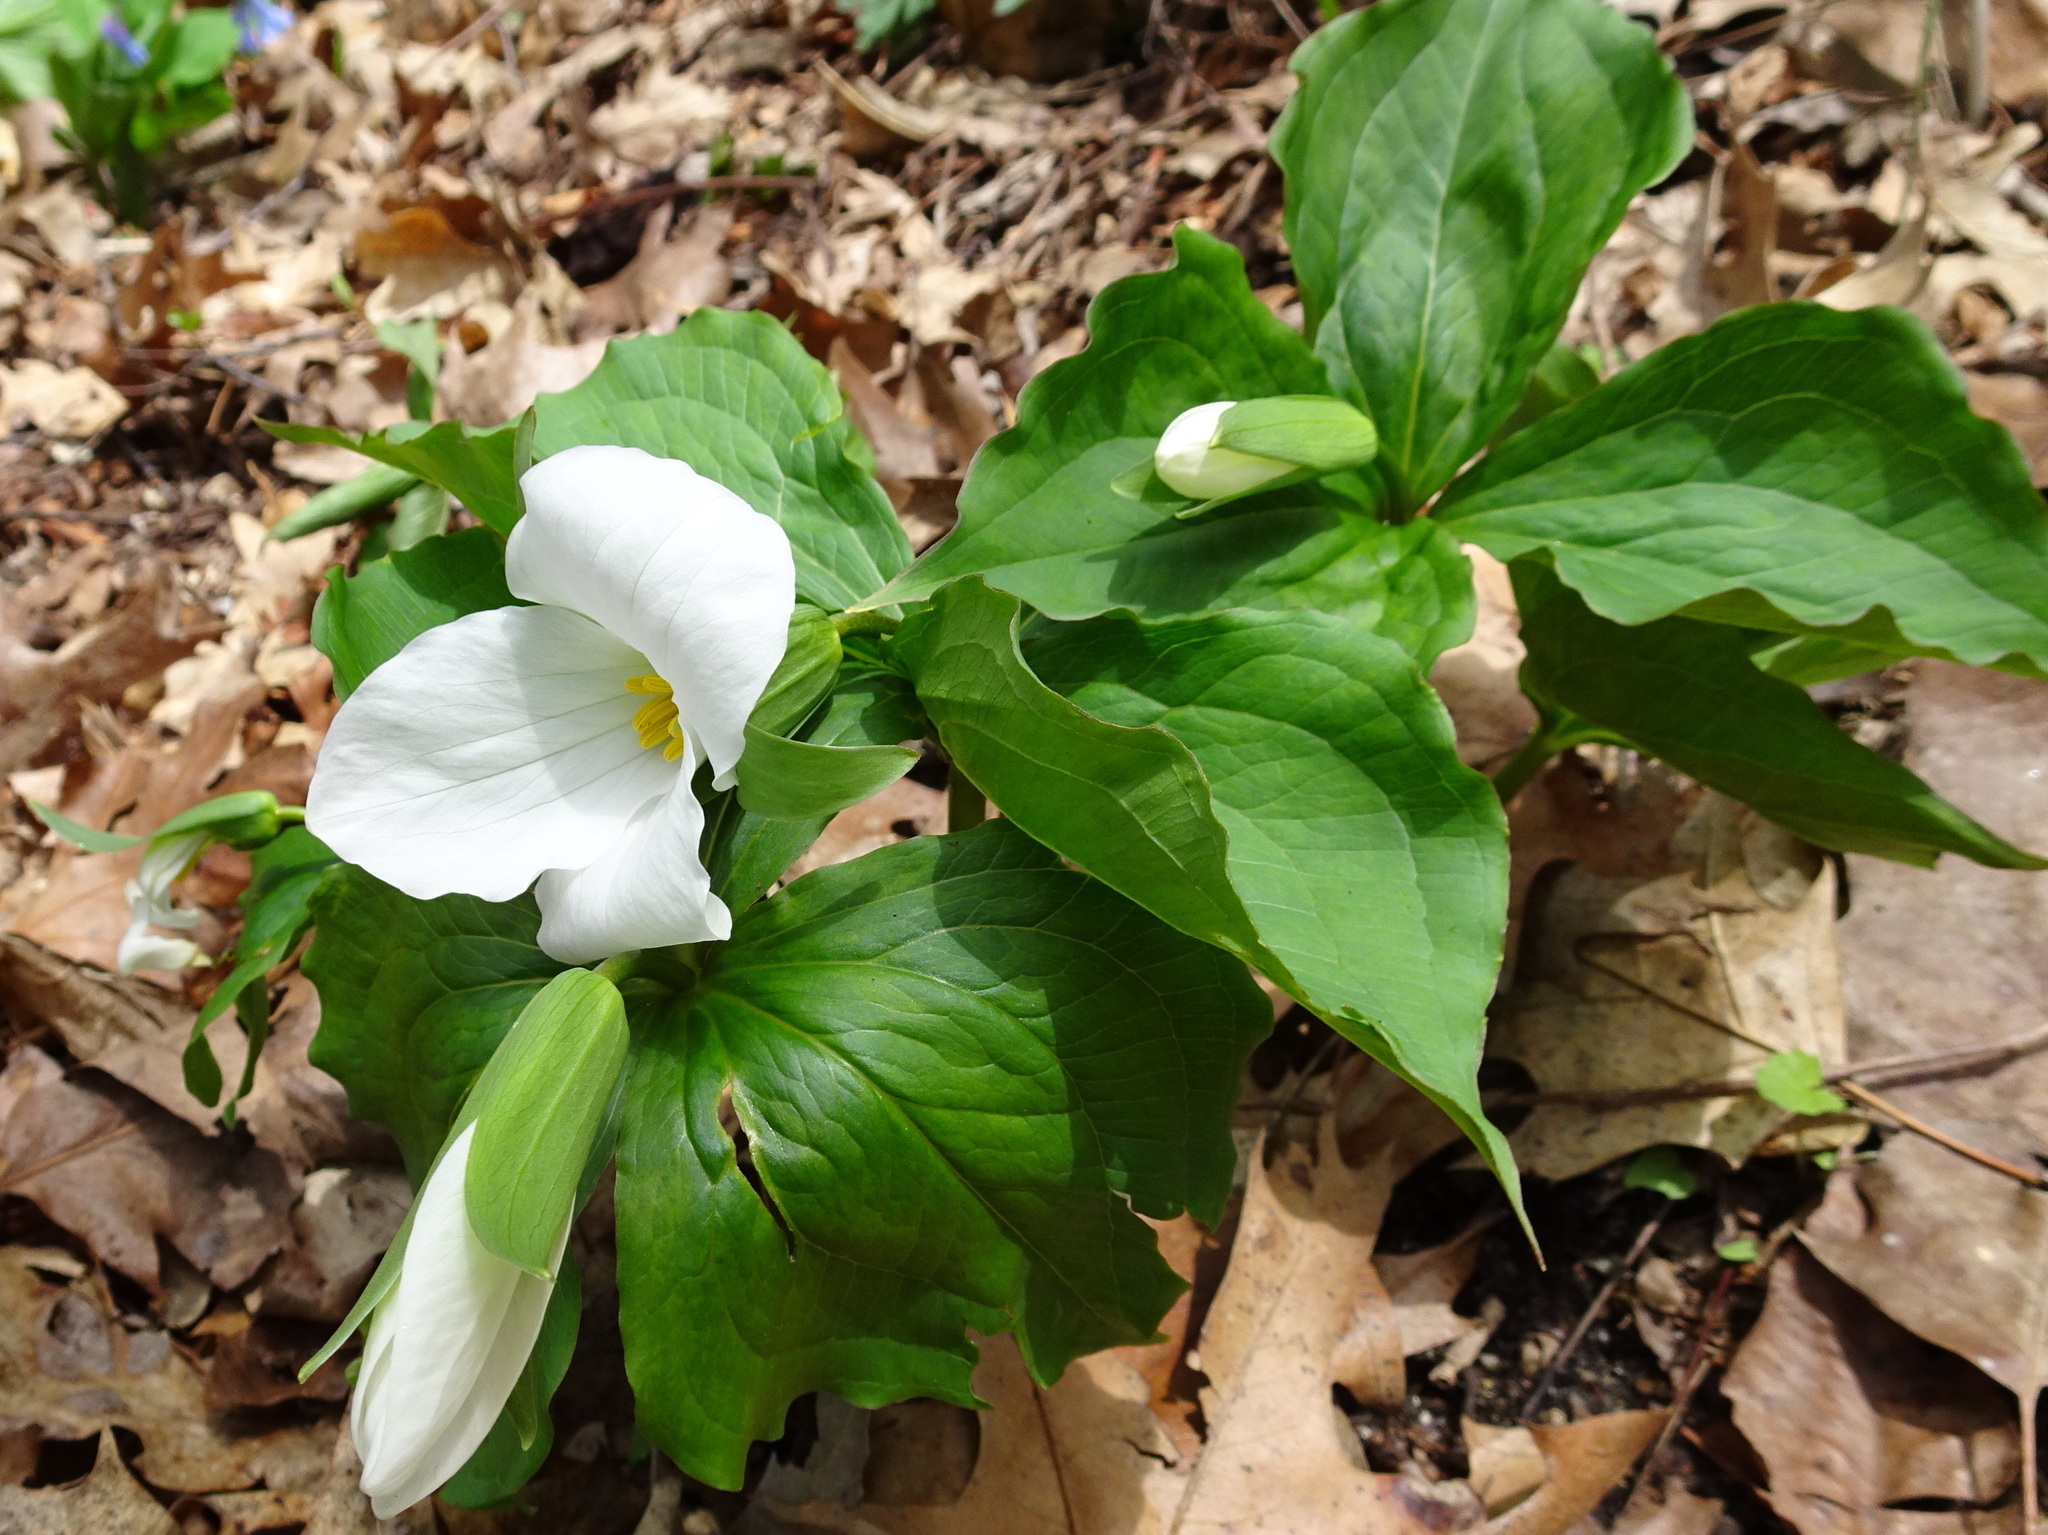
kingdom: Plantae
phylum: Tracheophyta
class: Liliopsida
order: Liliales
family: Melanthiaceae
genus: Trillium
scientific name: Trillium grandiflorum
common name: Great white trillium
